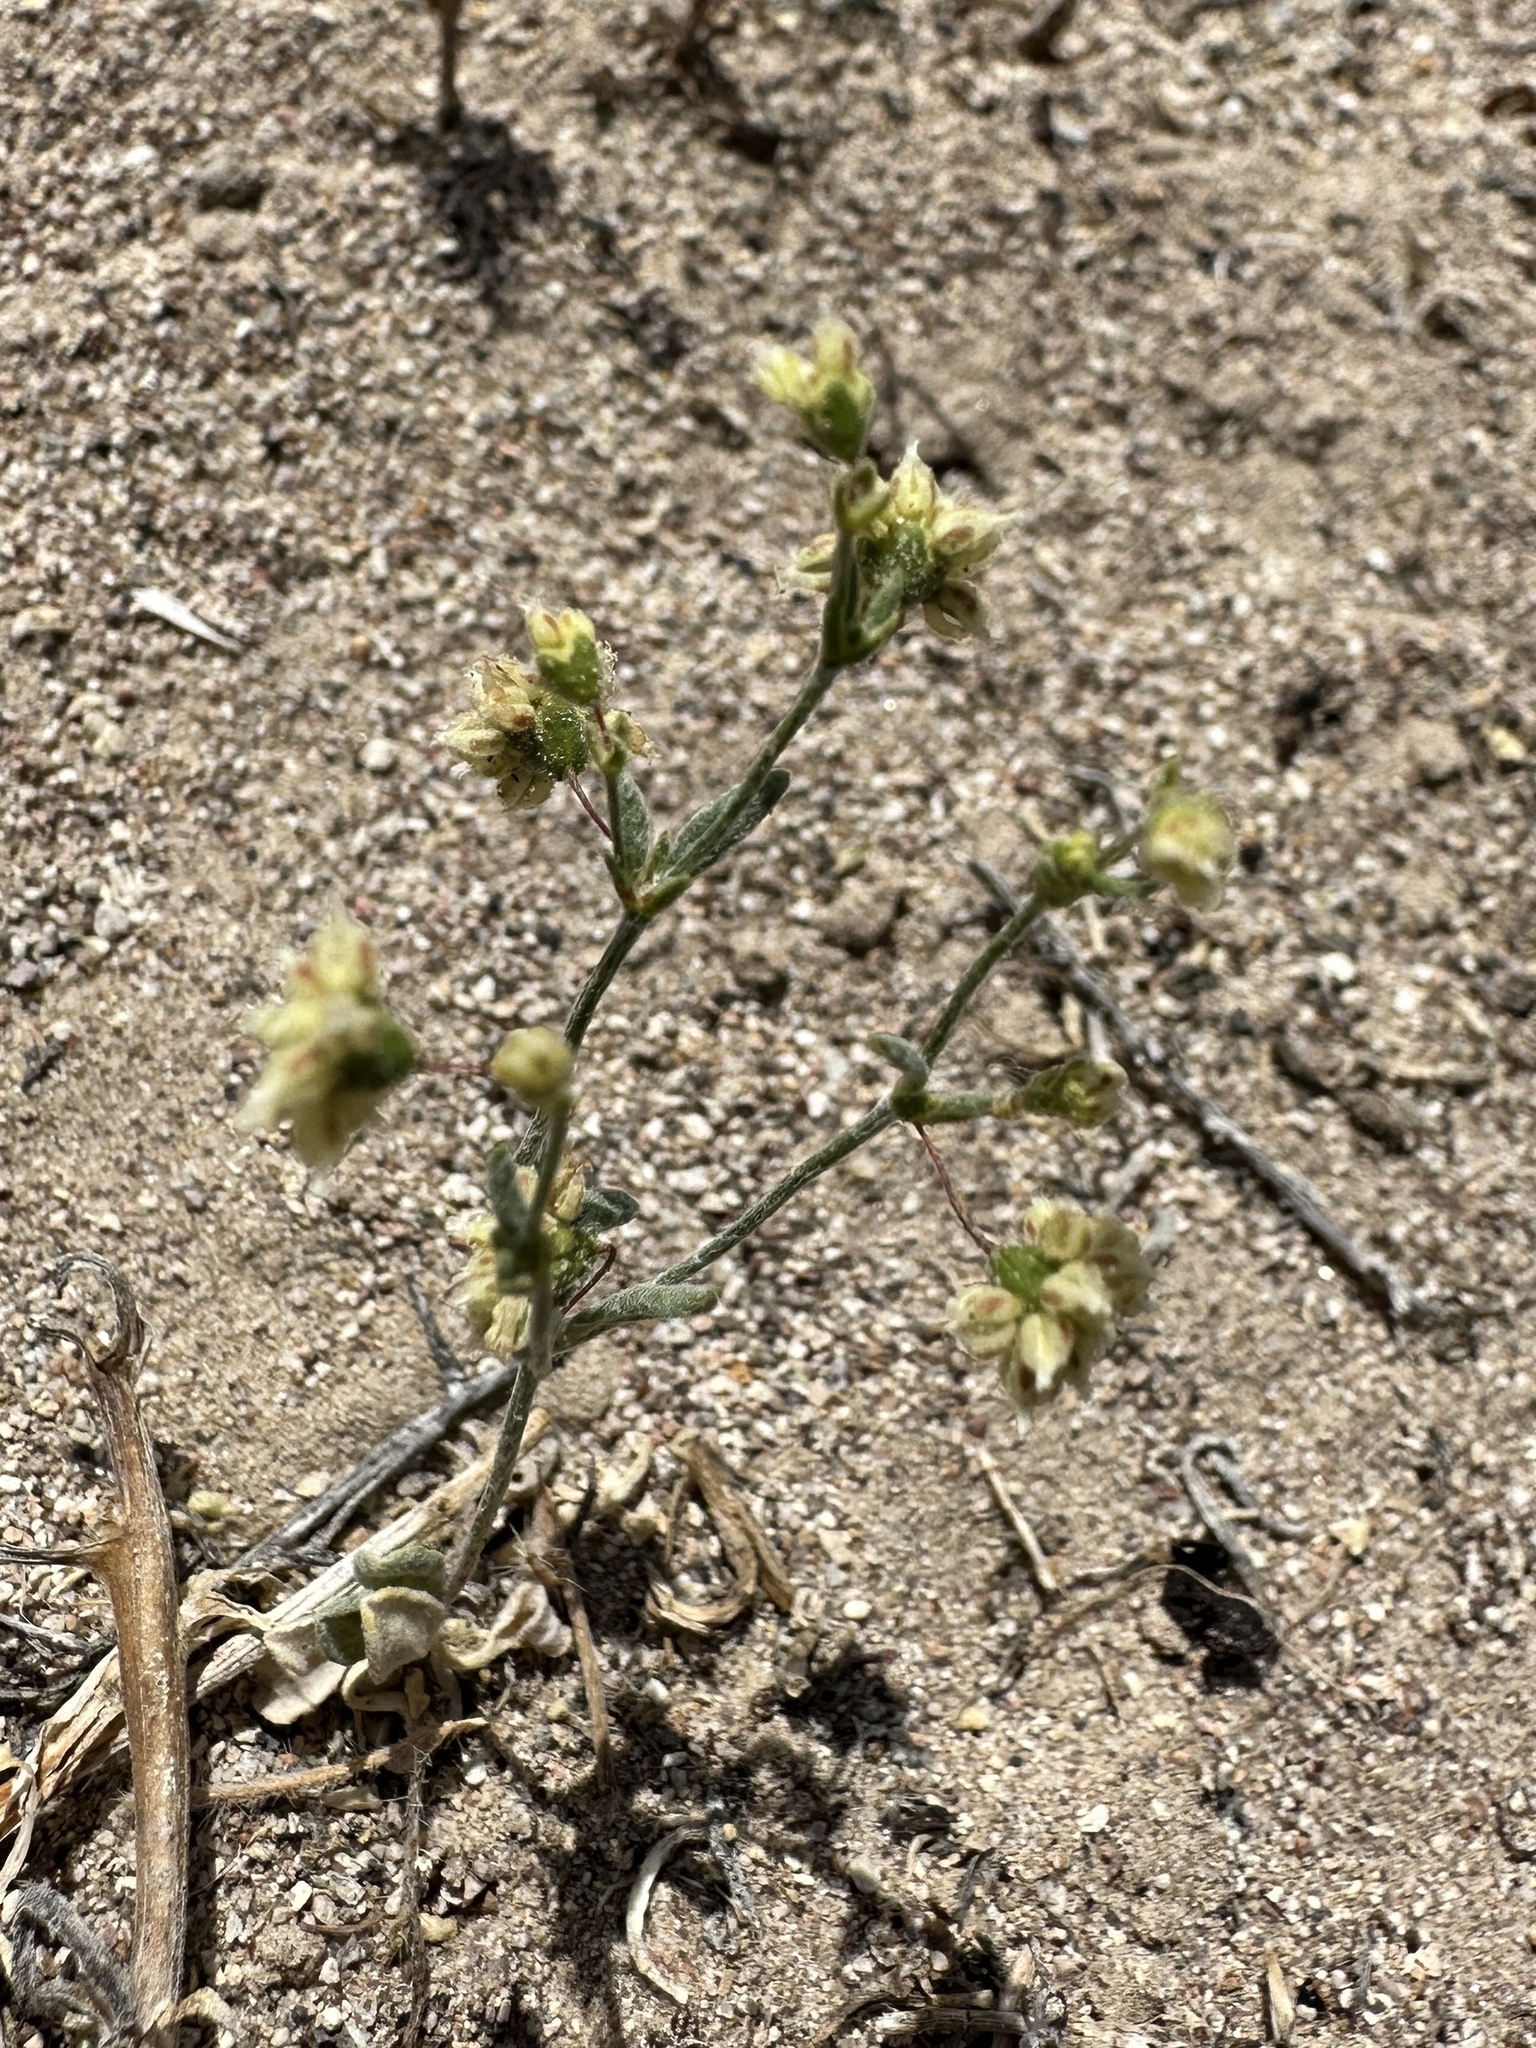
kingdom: Plantae
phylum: Tracheophyta
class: Magnoliopsida
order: Caryophyllales
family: Polygonaceae
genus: Eriogonum
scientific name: Eriogonum maculatum
